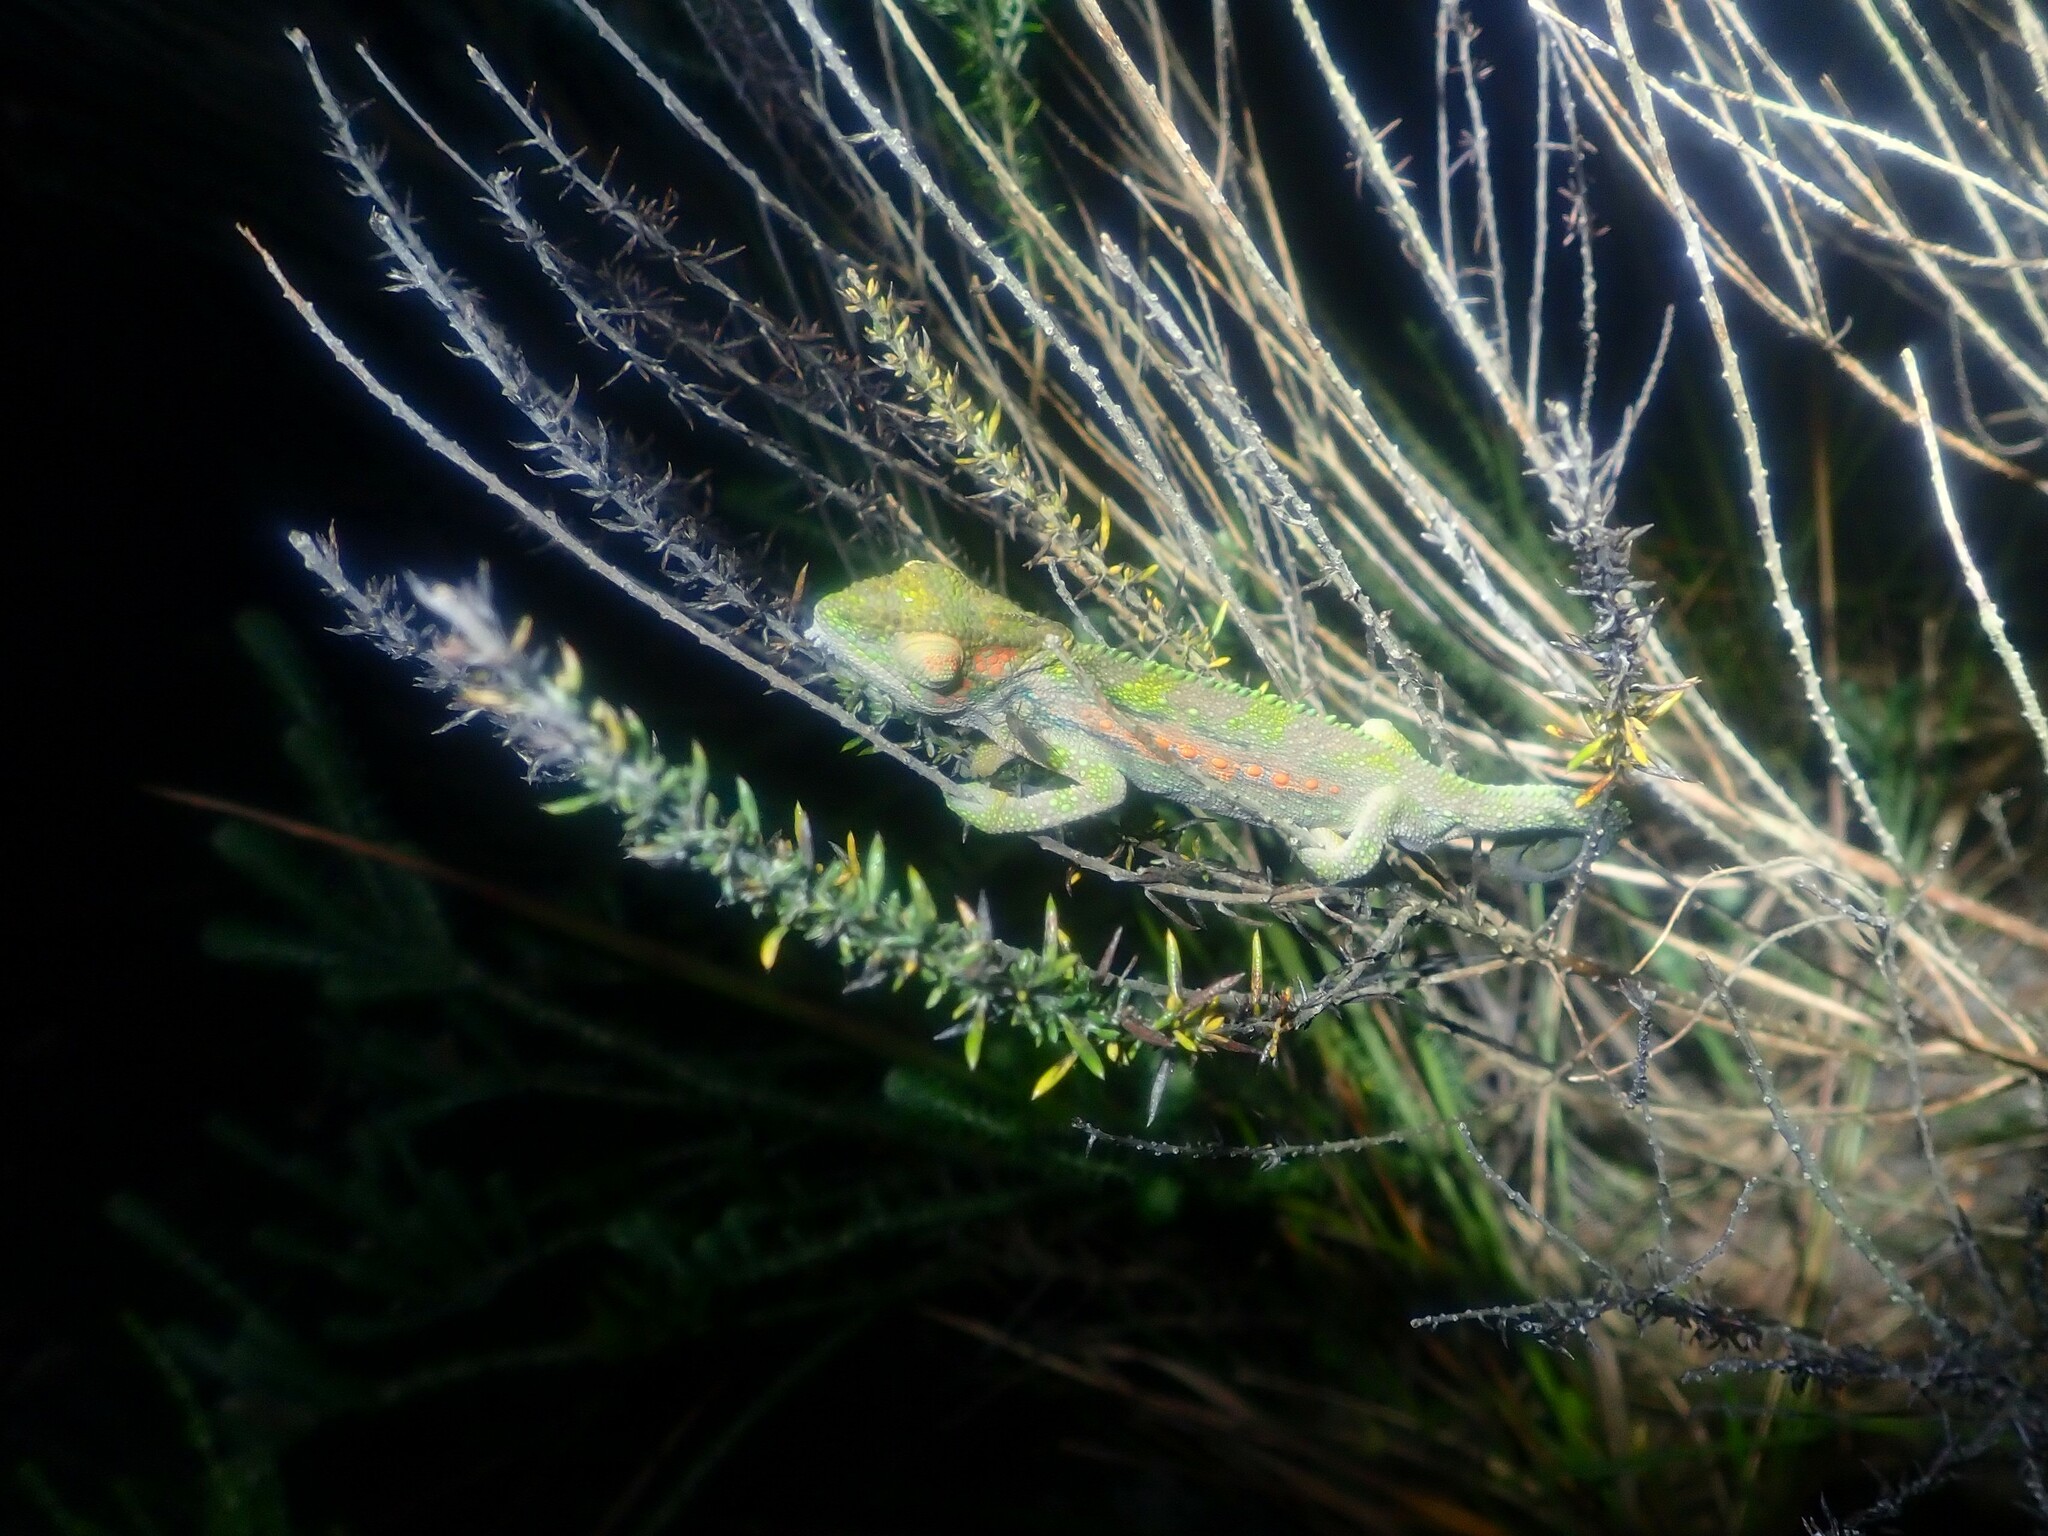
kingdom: Animalia
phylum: Chordata
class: Squamata
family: Chamaeleonidae
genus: Bradypodion
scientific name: Bradypodion pumilum
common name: Cape dwarf chameleon
